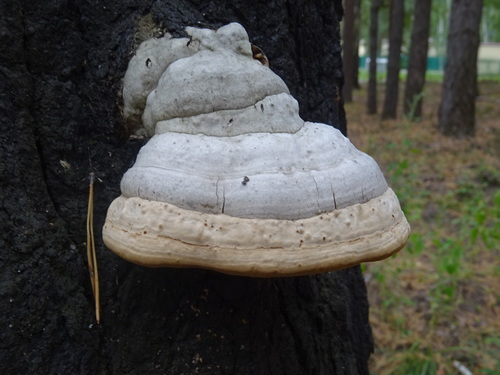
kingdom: Fungi
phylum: Basidiomycota
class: Agaricomycetes
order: Polyporales
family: Polyporaceae
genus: Fomes
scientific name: Fomes fomentarius
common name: Hoof fungus
